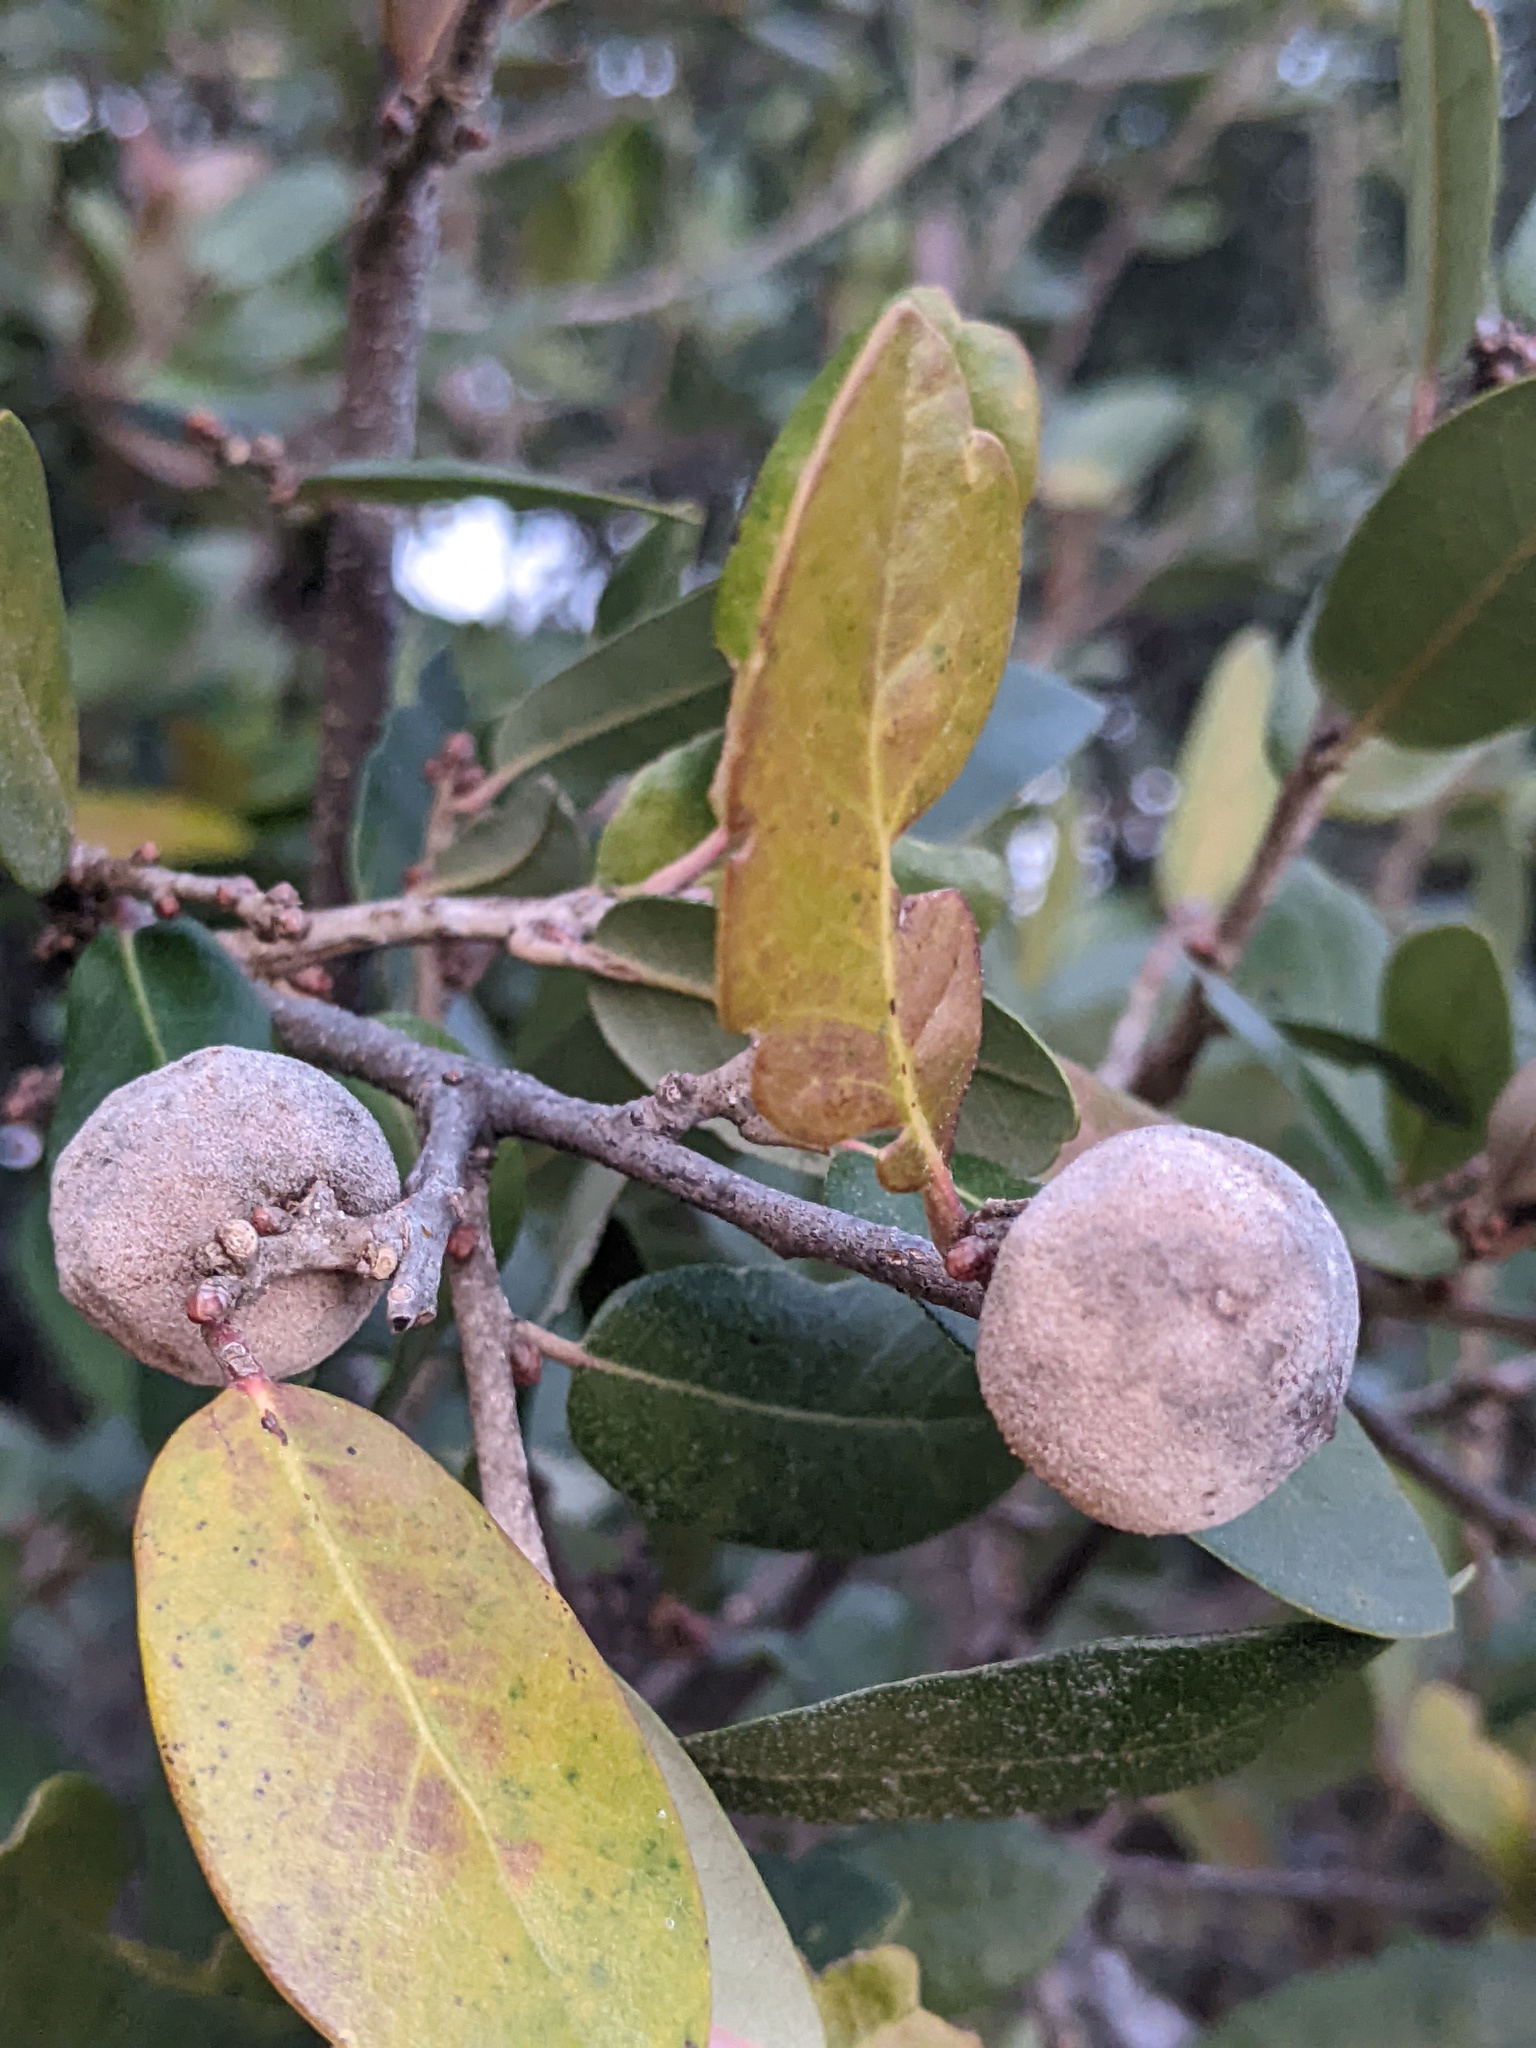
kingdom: Animalia
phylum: Arthropoda
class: Insecta
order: Hymenoptera
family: Cynipidae
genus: Disholcaspis
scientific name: Disholcaspis
